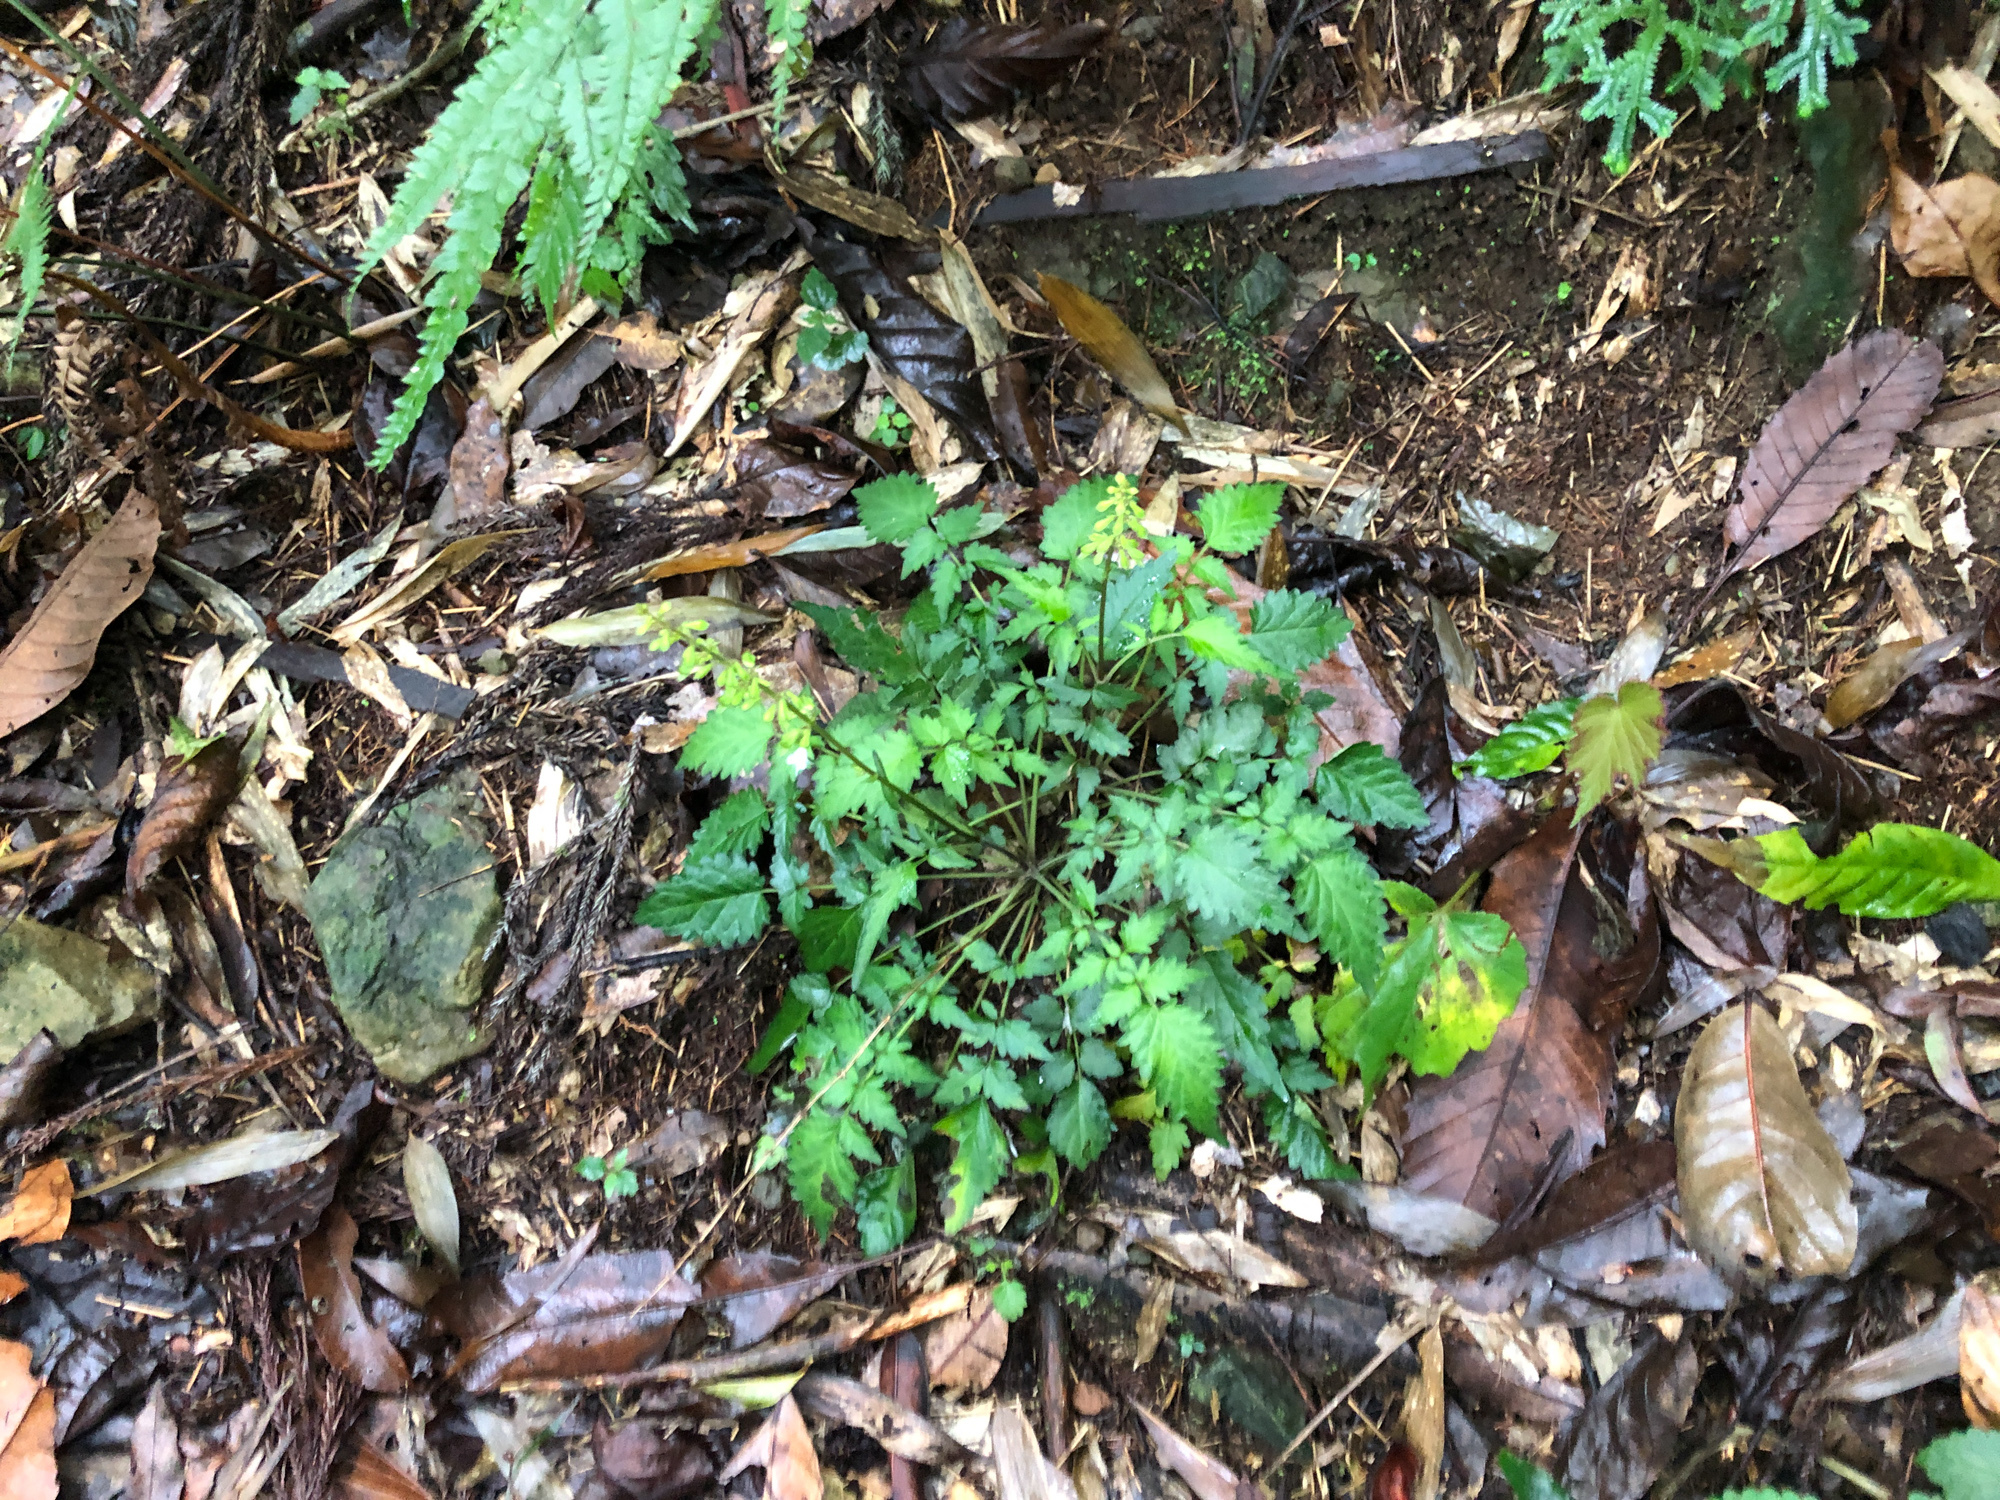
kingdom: Plantae
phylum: Tracheophyta
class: Magnoliopsida
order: Lamiales
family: Lamiaceae
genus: Salvia
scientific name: Salvia hayatae
